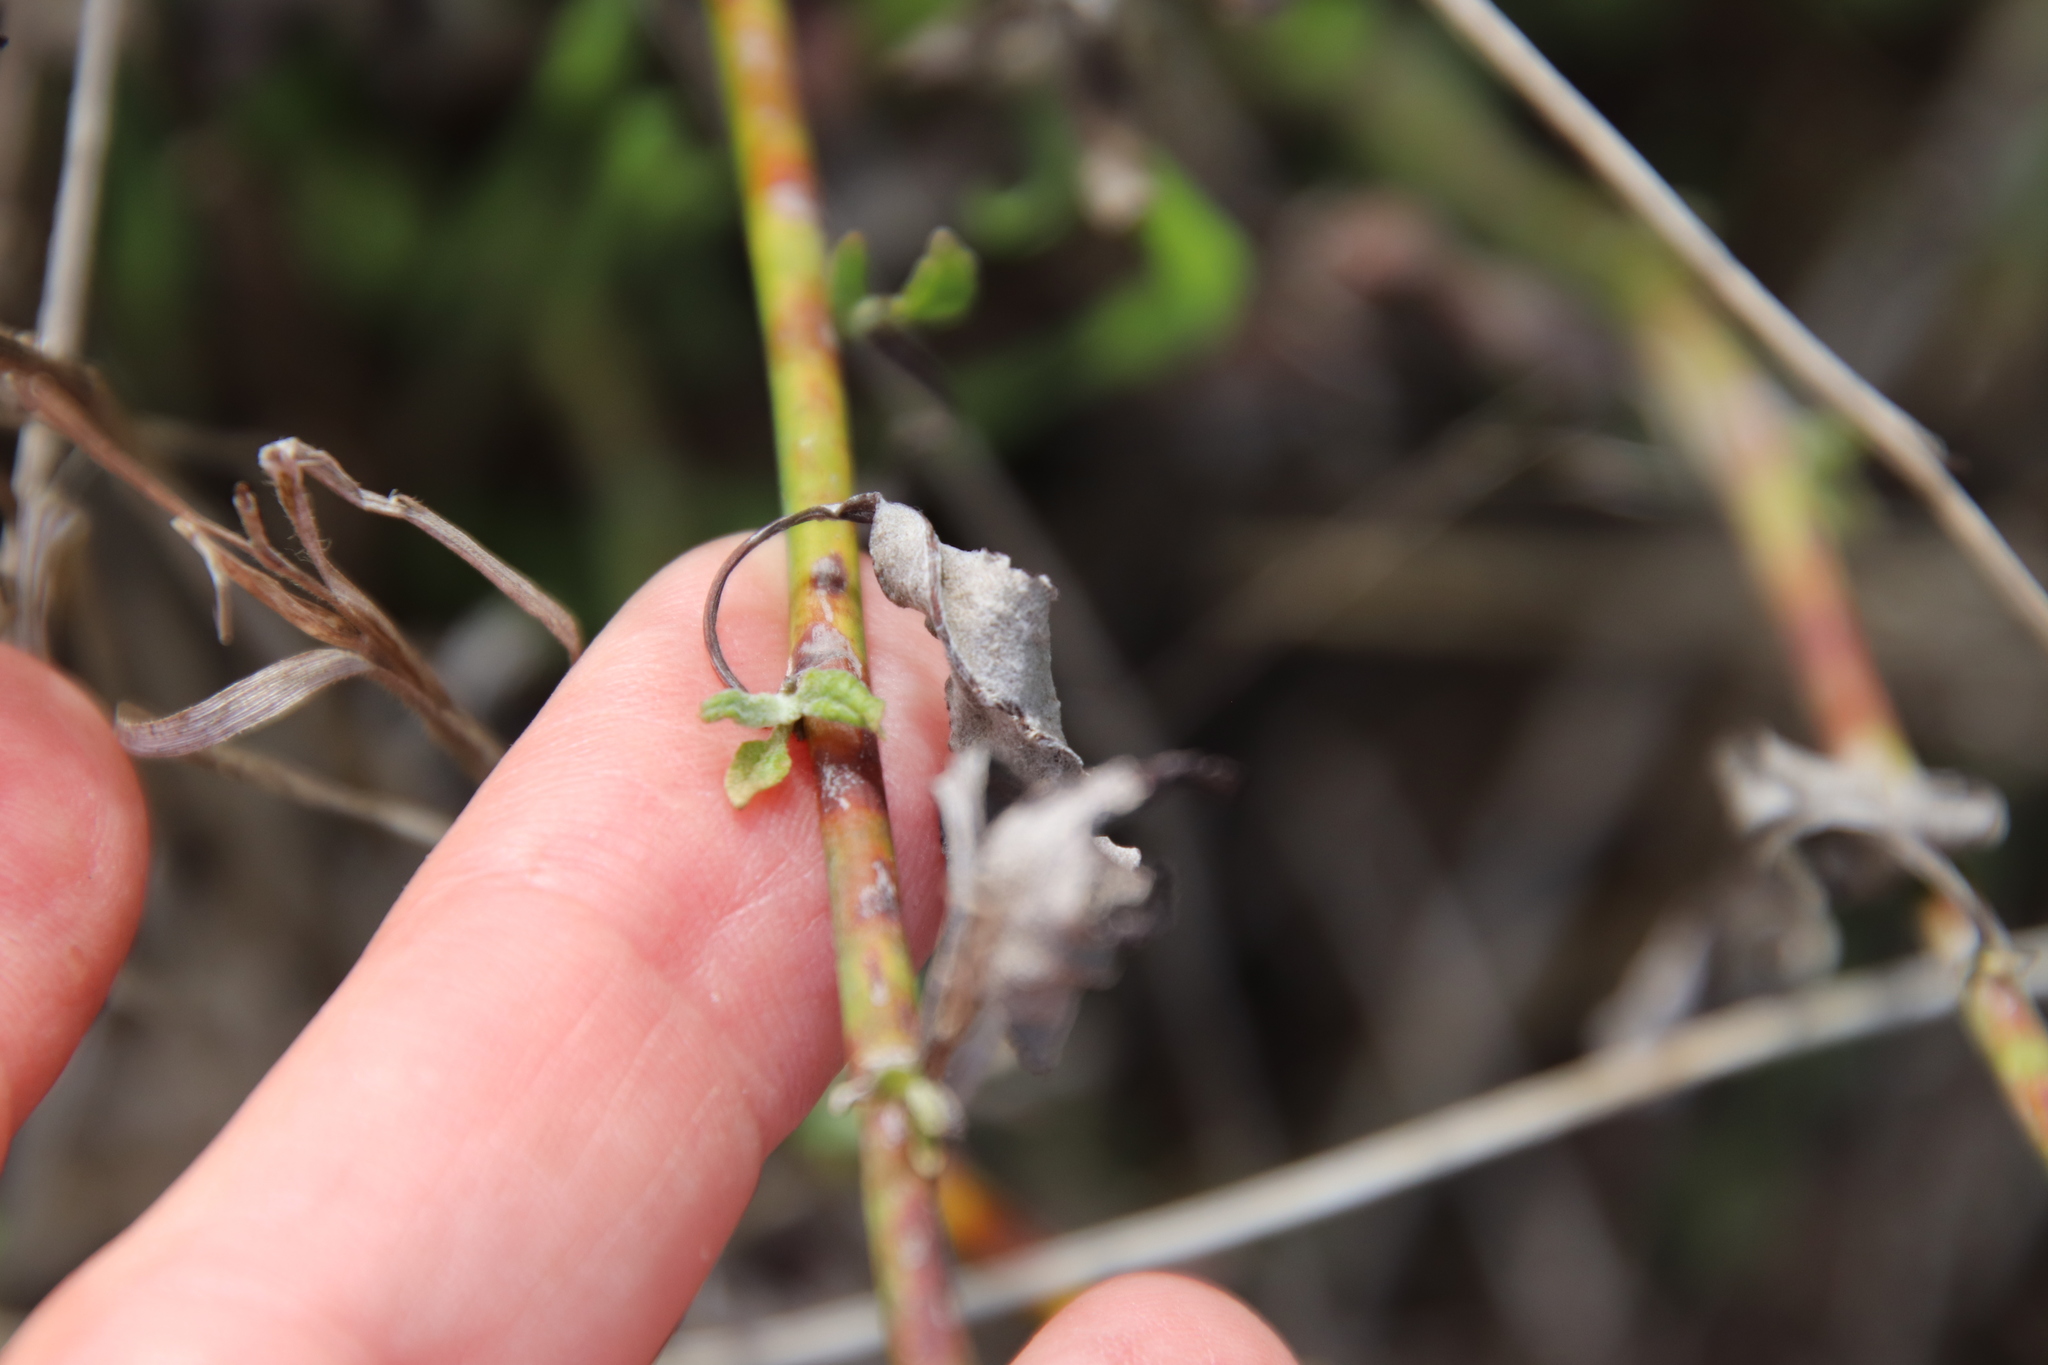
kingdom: Plantae
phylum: Tracheophyta
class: Magnoliopsida
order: Caryophyllales
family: Polygonaceae
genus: Eriogonum
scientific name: Eriogonum elongatum
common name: Long-stem wild buckwheat
